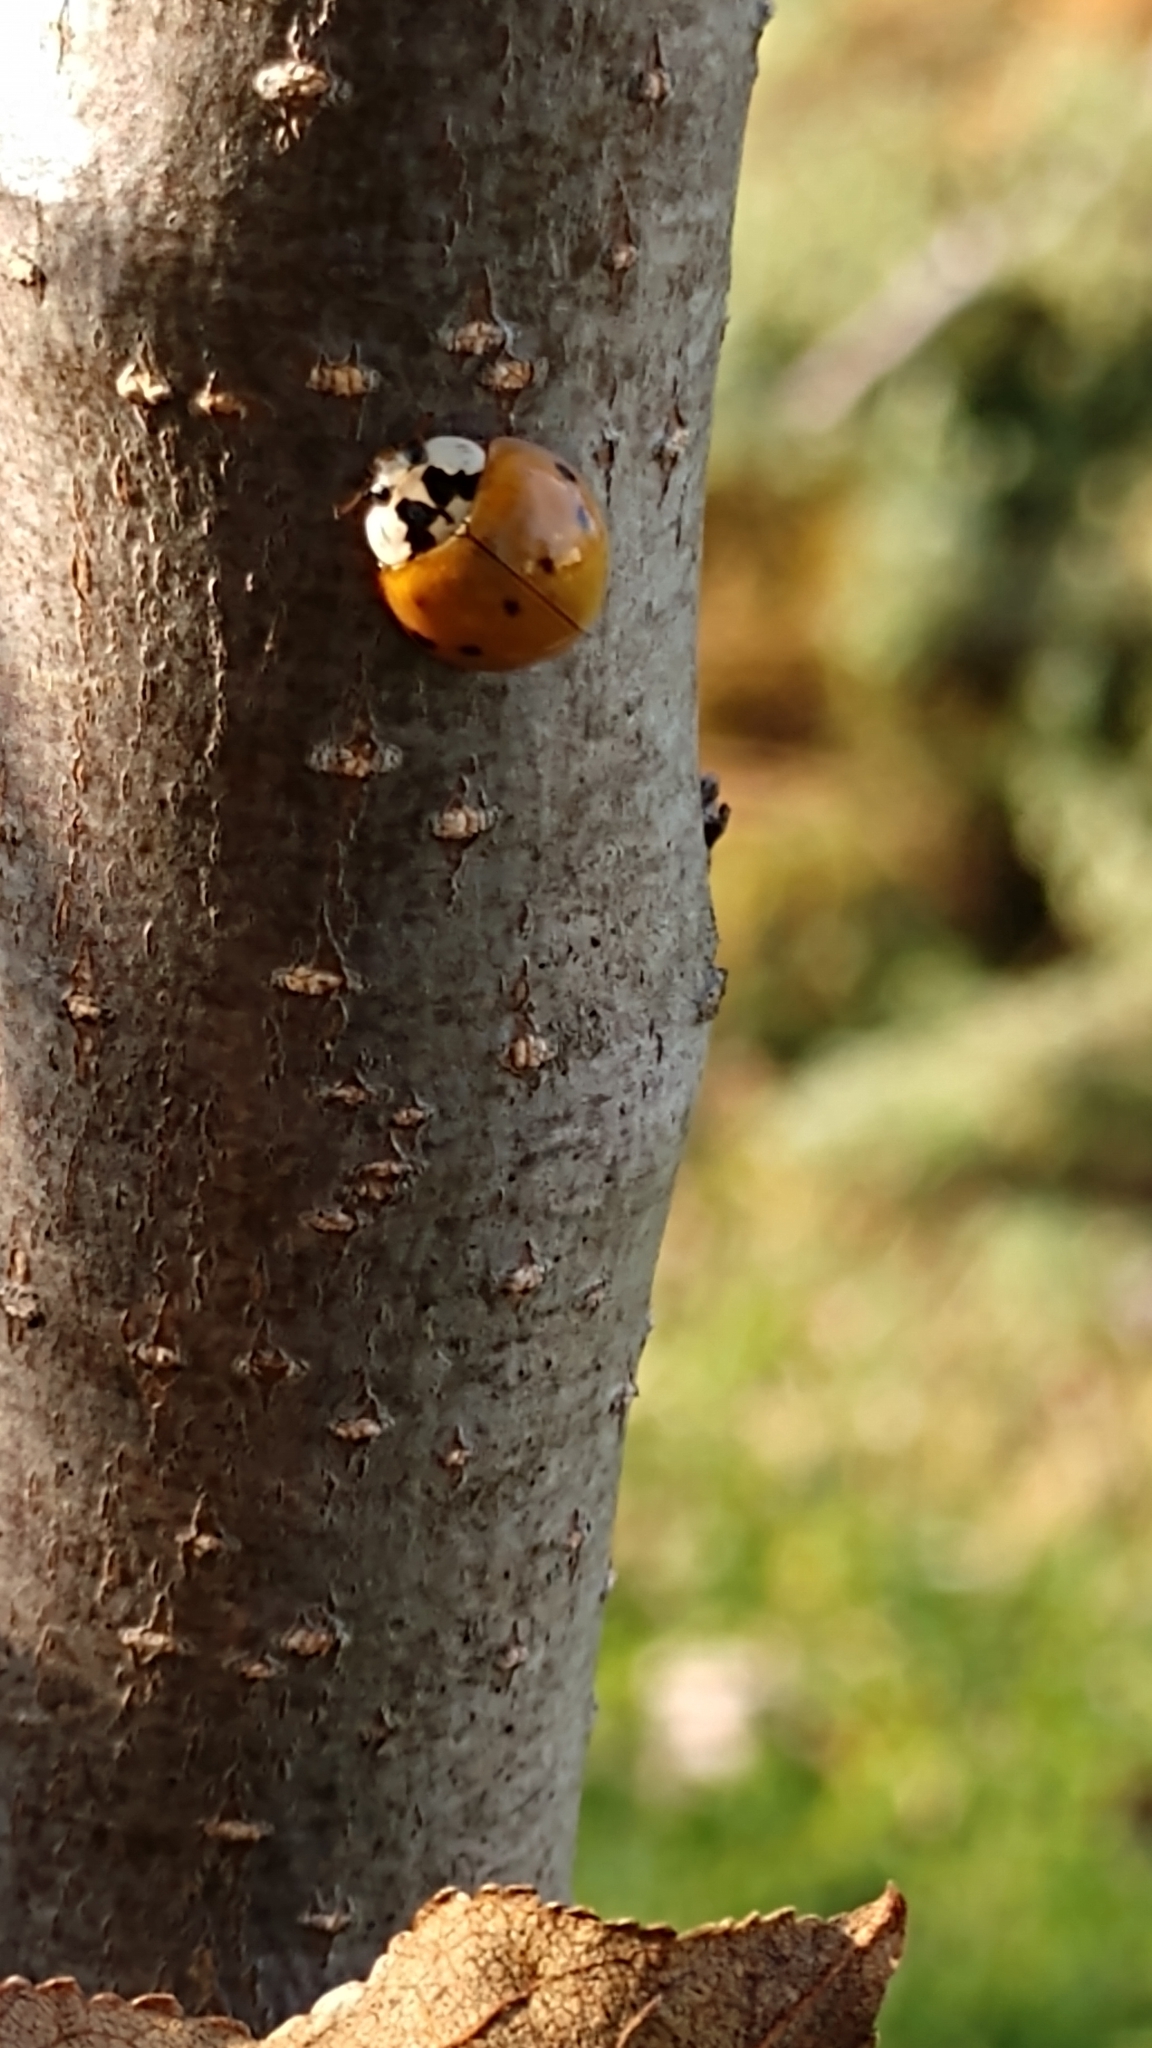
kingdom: Animalia
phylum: Arthropoda
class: Insecta
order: Coleoptera
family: Coccinellidae
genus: Harmonia
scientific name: Harmonia axyridis
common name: Harlequin ladybird
